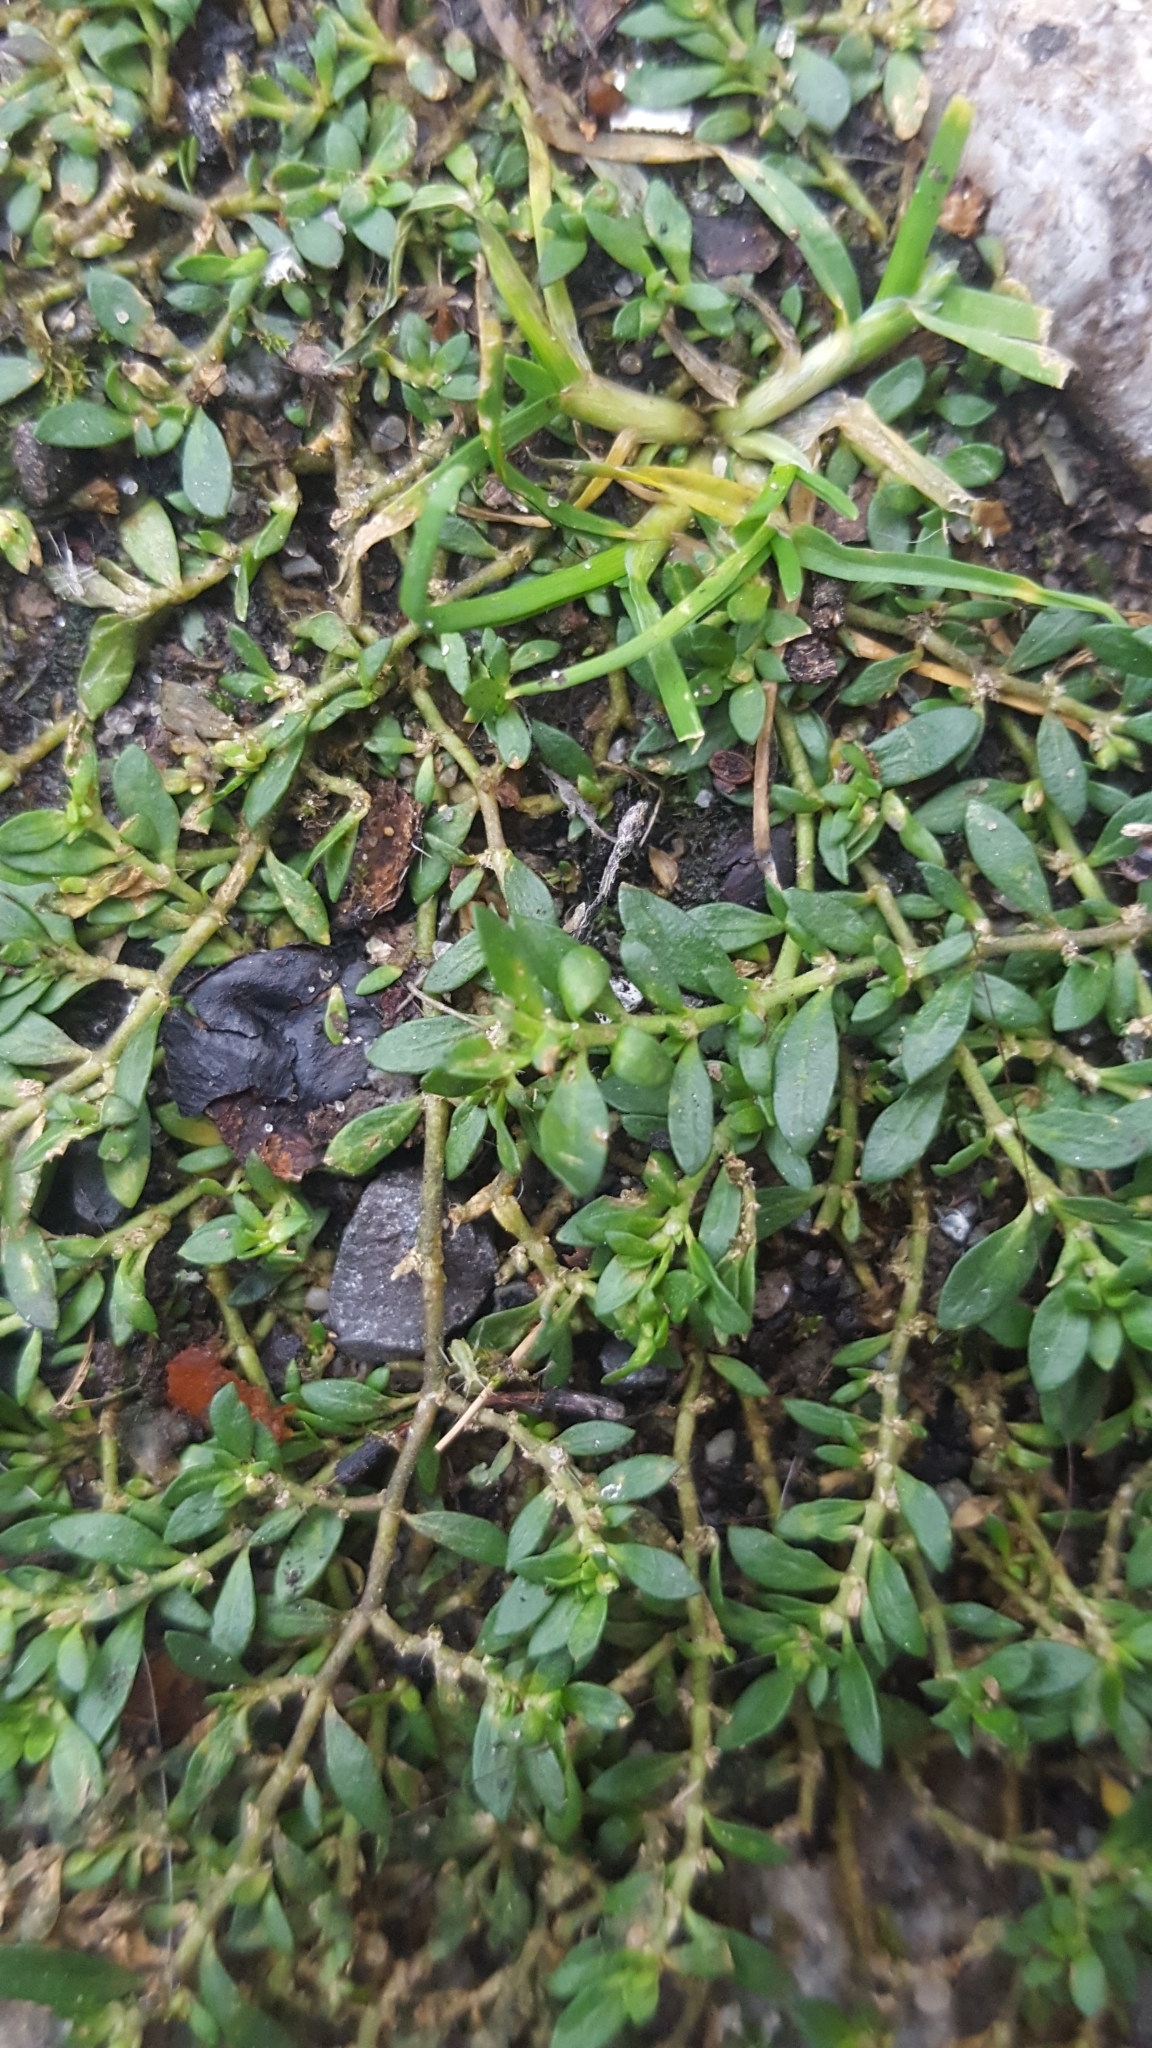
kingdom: Plantae
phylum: Tracheophyta
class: Magnoliopsida
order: Caryophyllales
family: Polygonaceae
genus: Polygonum
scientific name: Polygonum arenastrum
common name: Equal-leaved knotgrass
